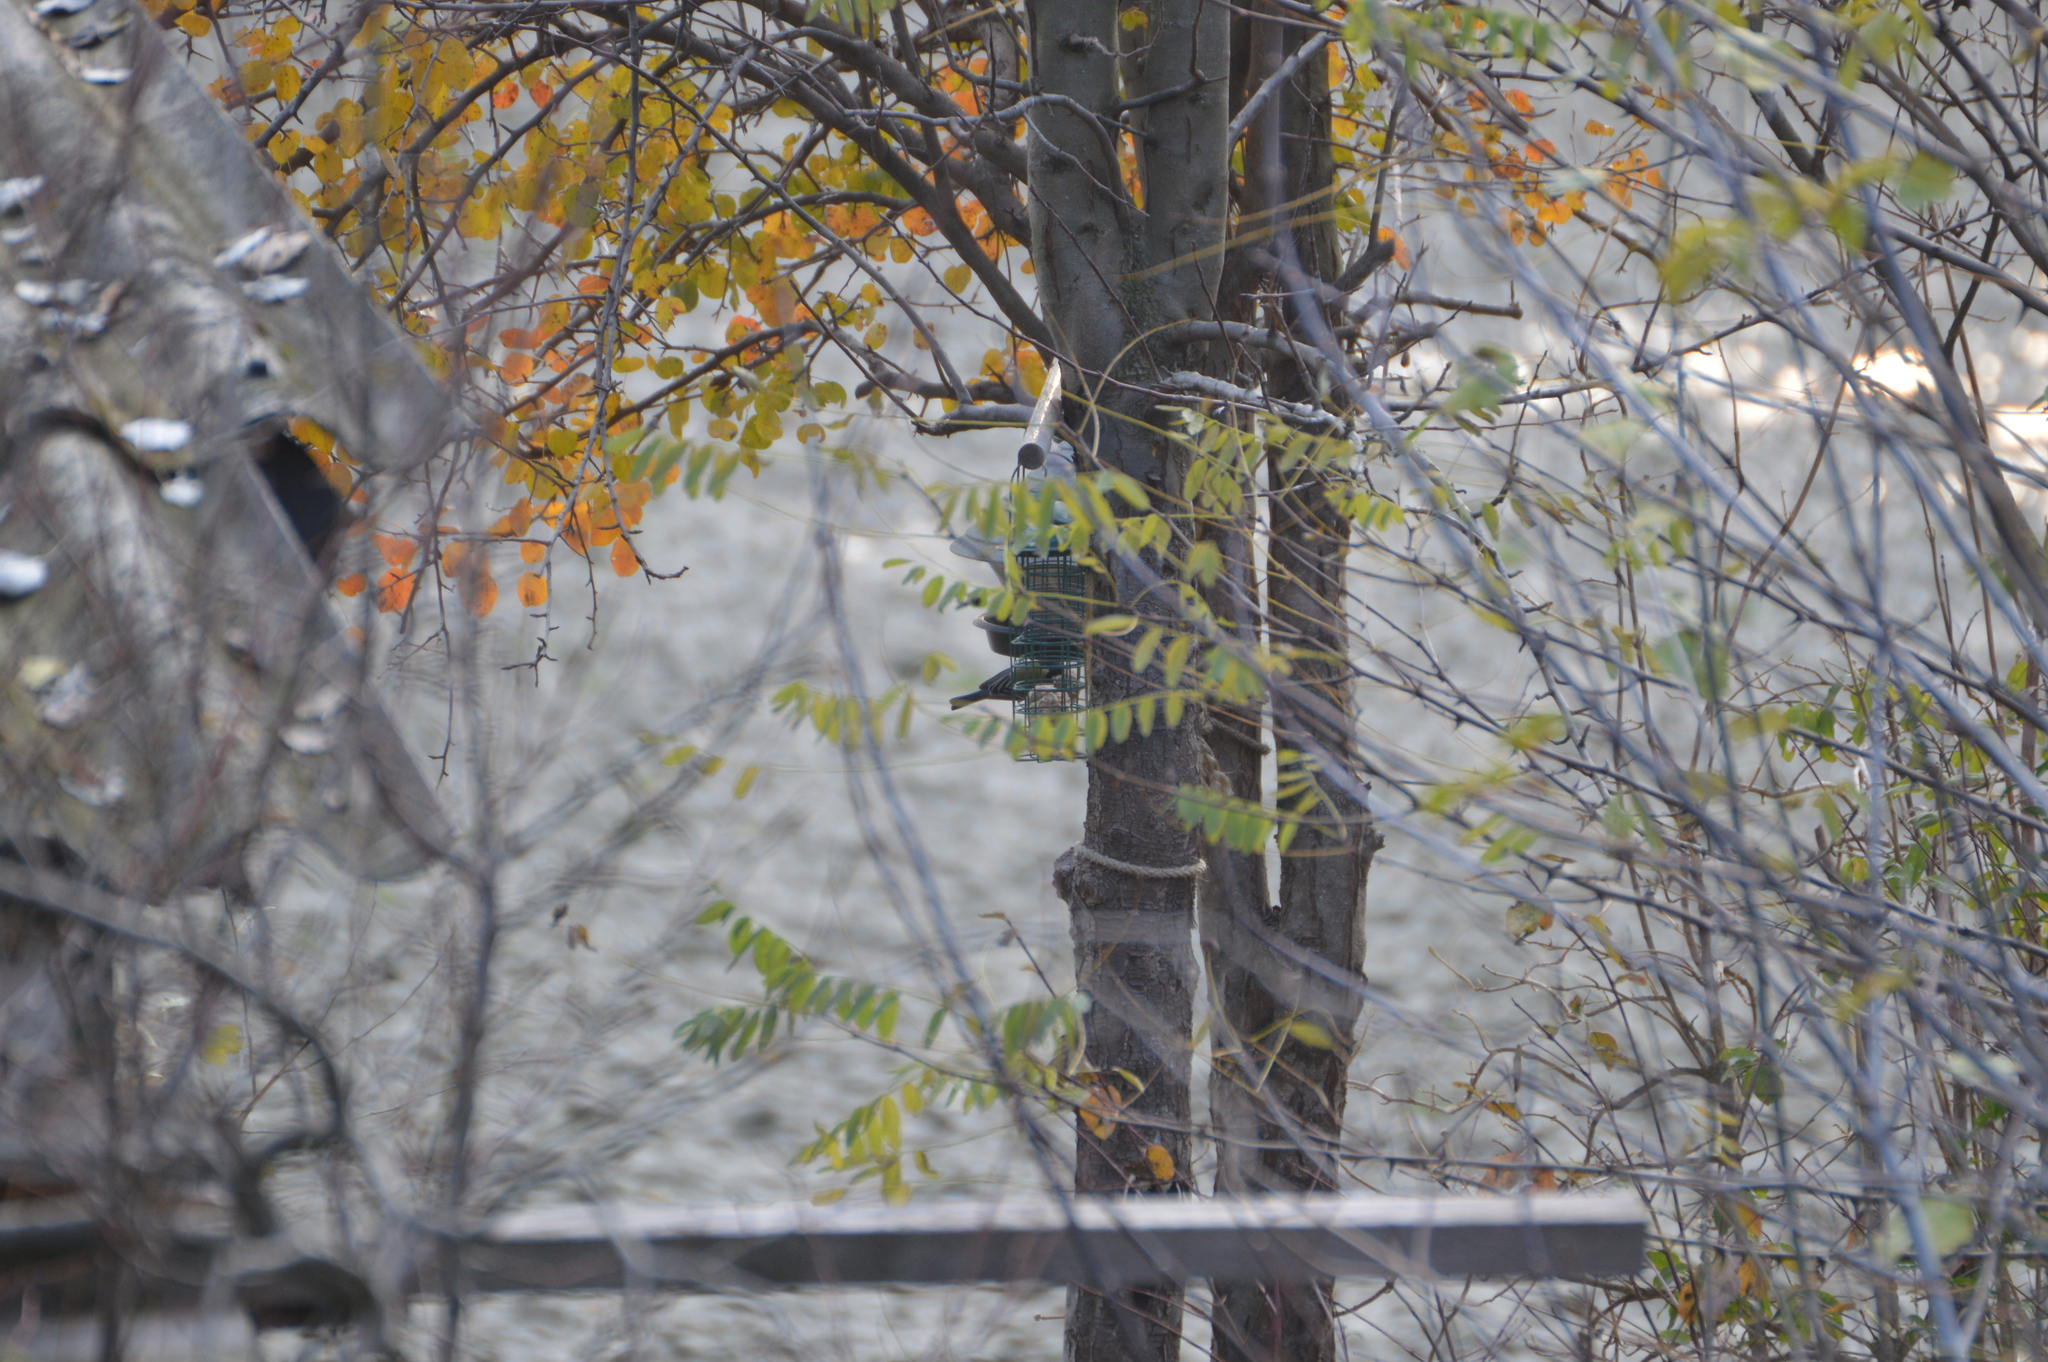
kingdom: Animalia
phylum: Chordata
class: Aves
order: Passeriformes
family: Paridae
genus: Parus
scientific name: Parus major
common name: Great tit
